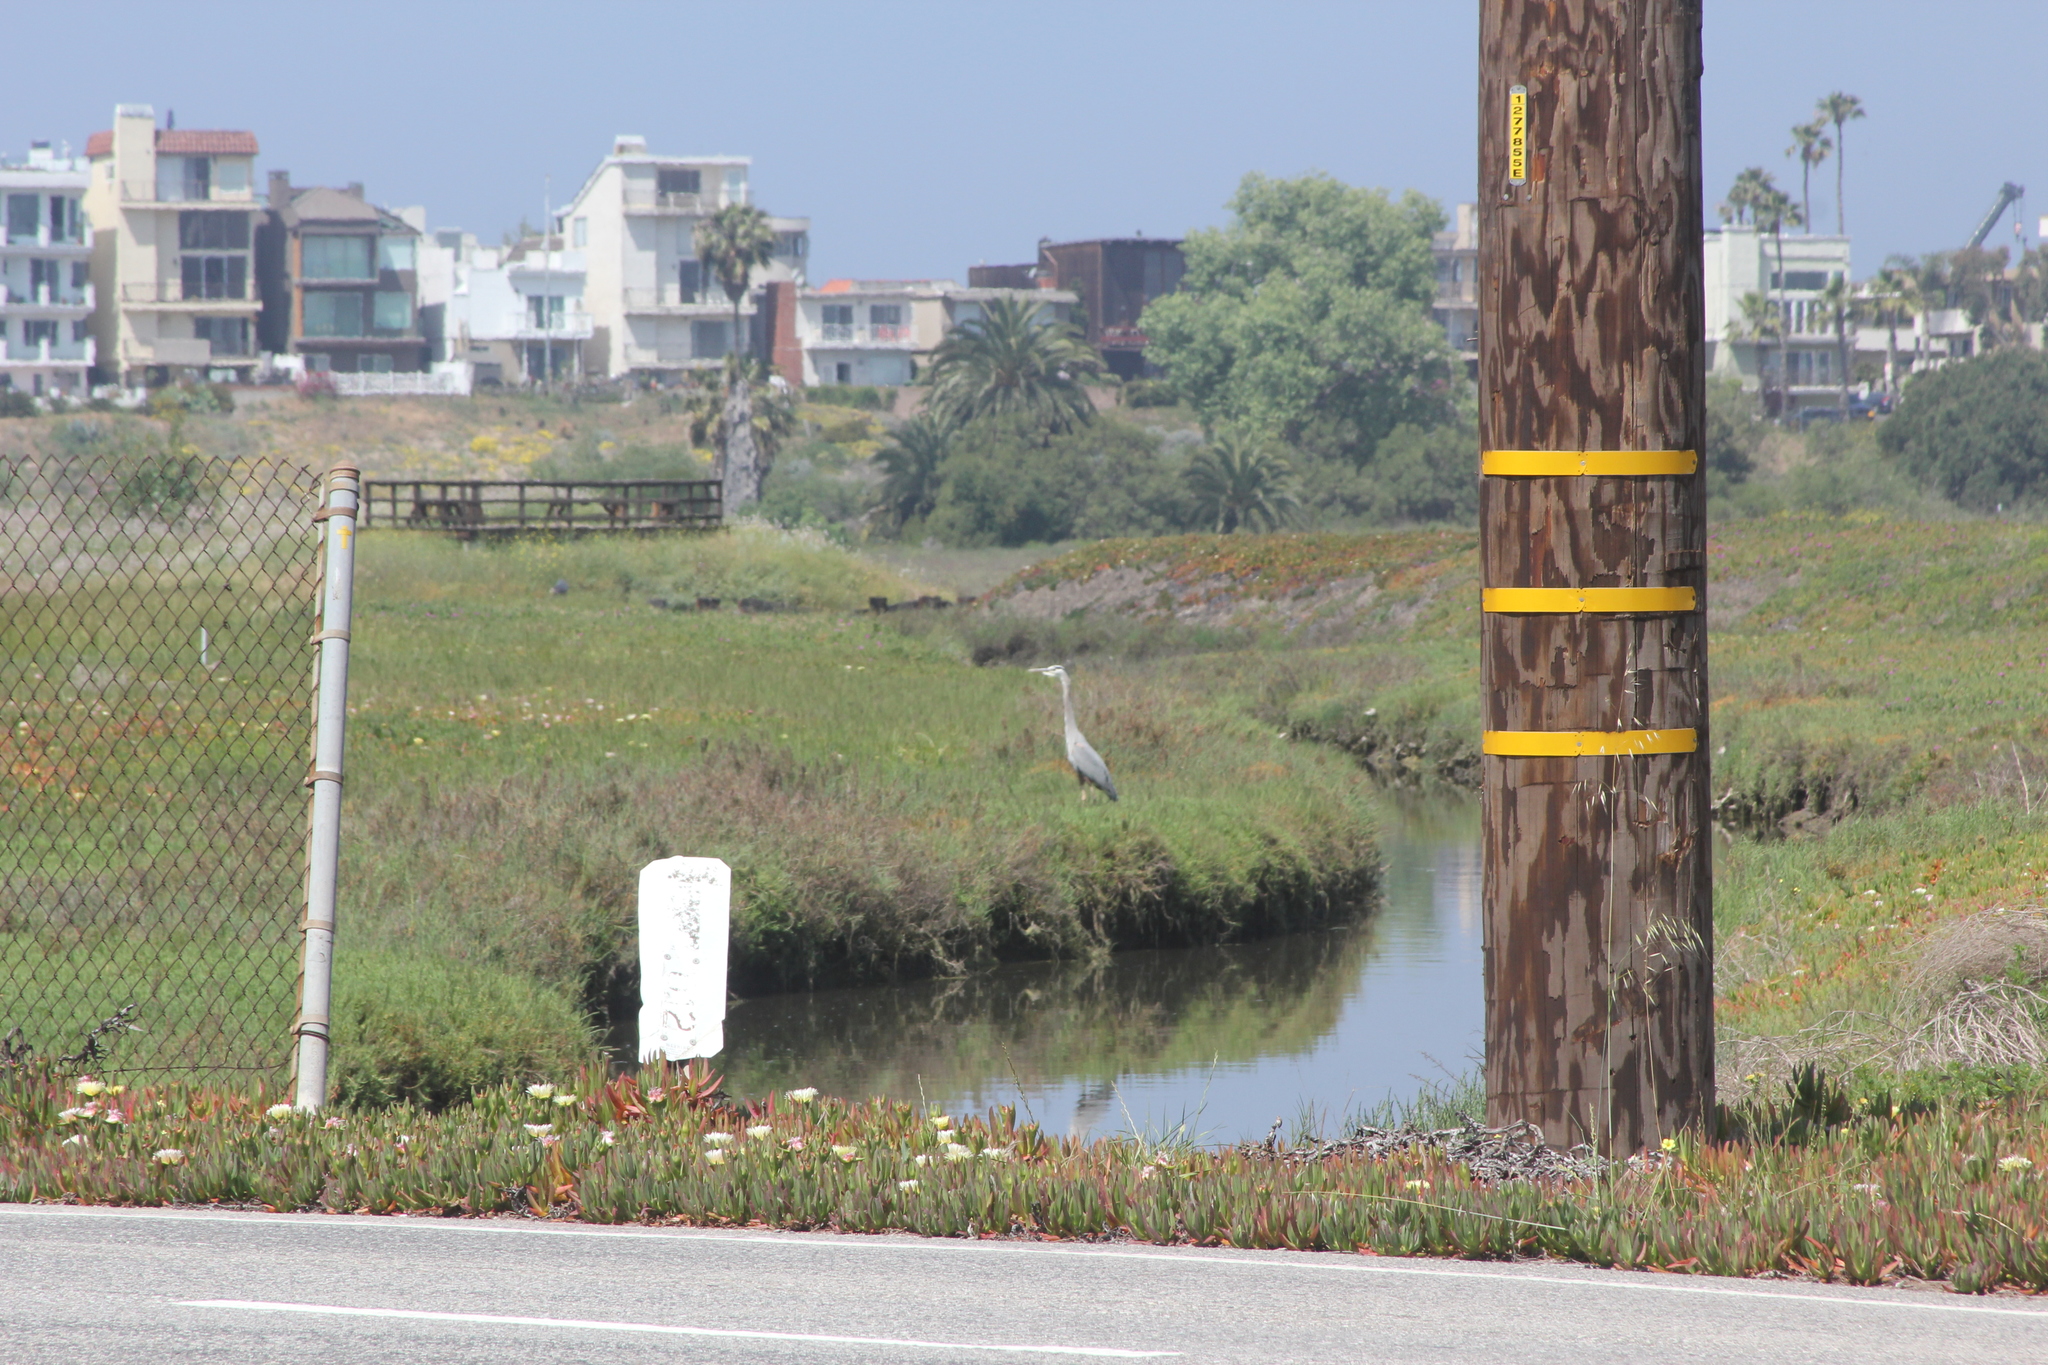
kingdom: Animalia
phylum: Chordata
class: Aves
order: Pelecaniformes
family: Ardeidae
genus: Ardea
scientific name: Ardea herodias
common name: Great blue heron
